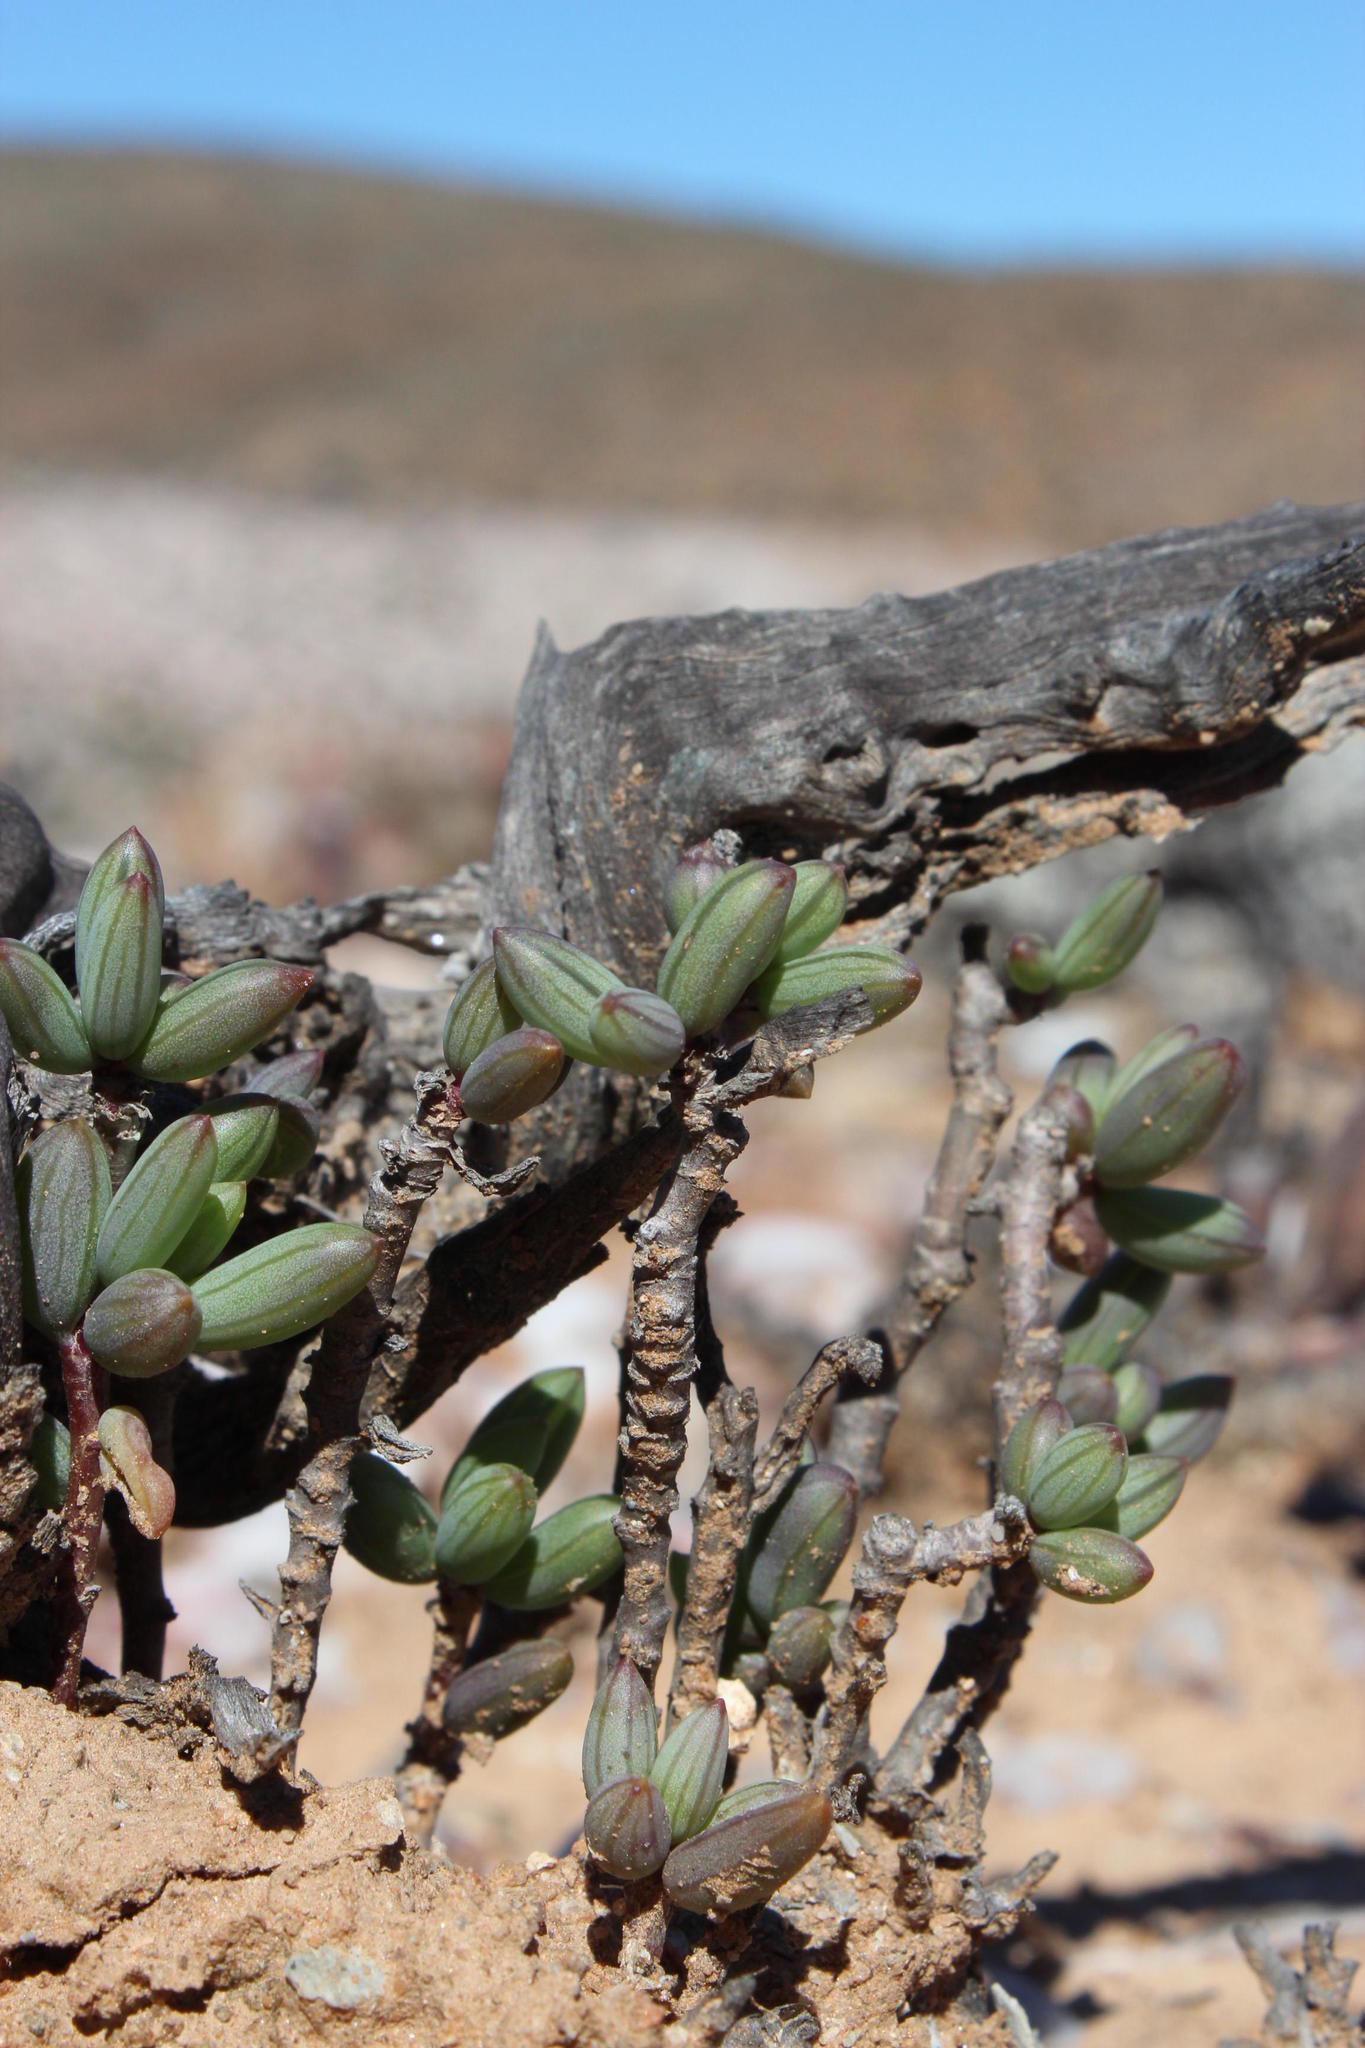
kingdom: Plantae
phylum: Tracheophyta
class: Magnoliopsida
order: Asterales
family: Asteraceae
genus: Curio
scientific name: Curio sulcicalyx
